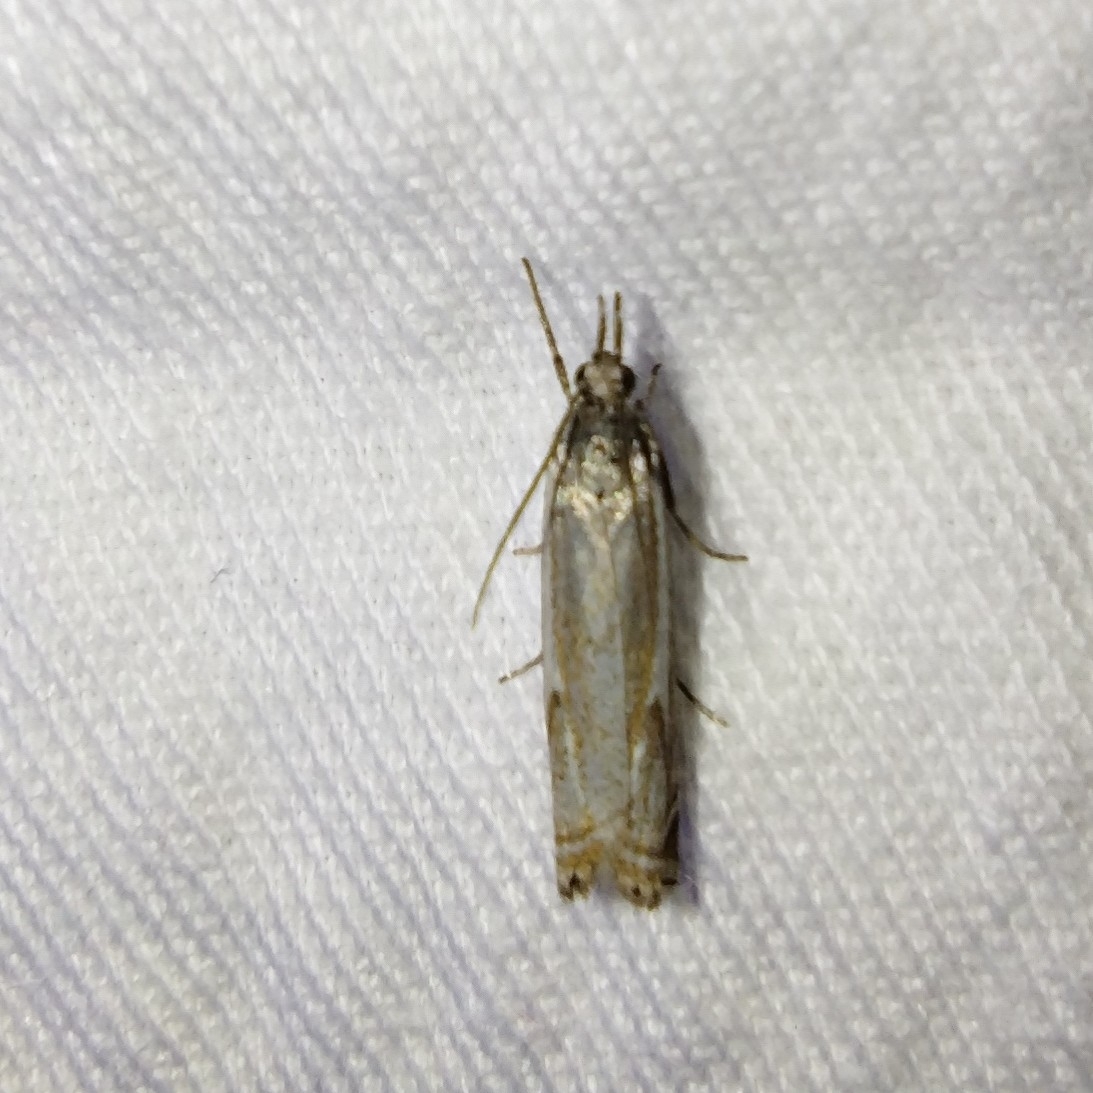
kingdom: Animalia
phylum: Arthropoda
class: Insecta
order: Lepidoptera
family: Crambidae
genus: Crambus
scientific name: Crambus nemorella
